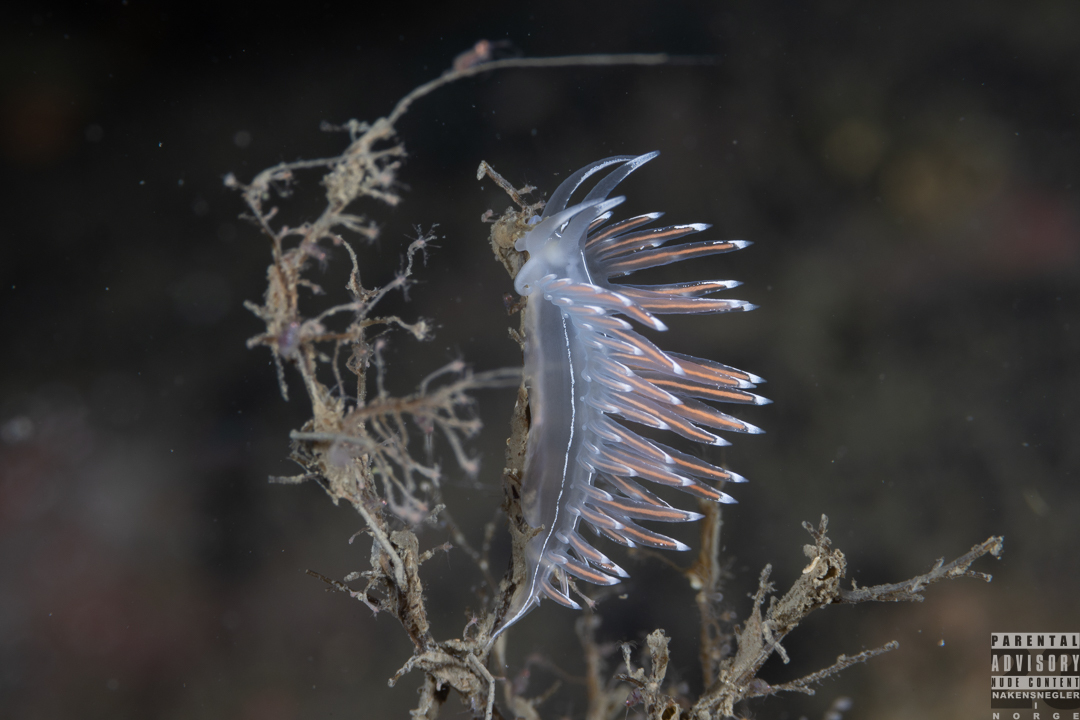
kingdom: Animalia
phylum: Mollusca
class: Gastropoda
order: Nudibranchia
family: Coryphellidae
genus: Coryphella
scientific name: Coryphella lineata
